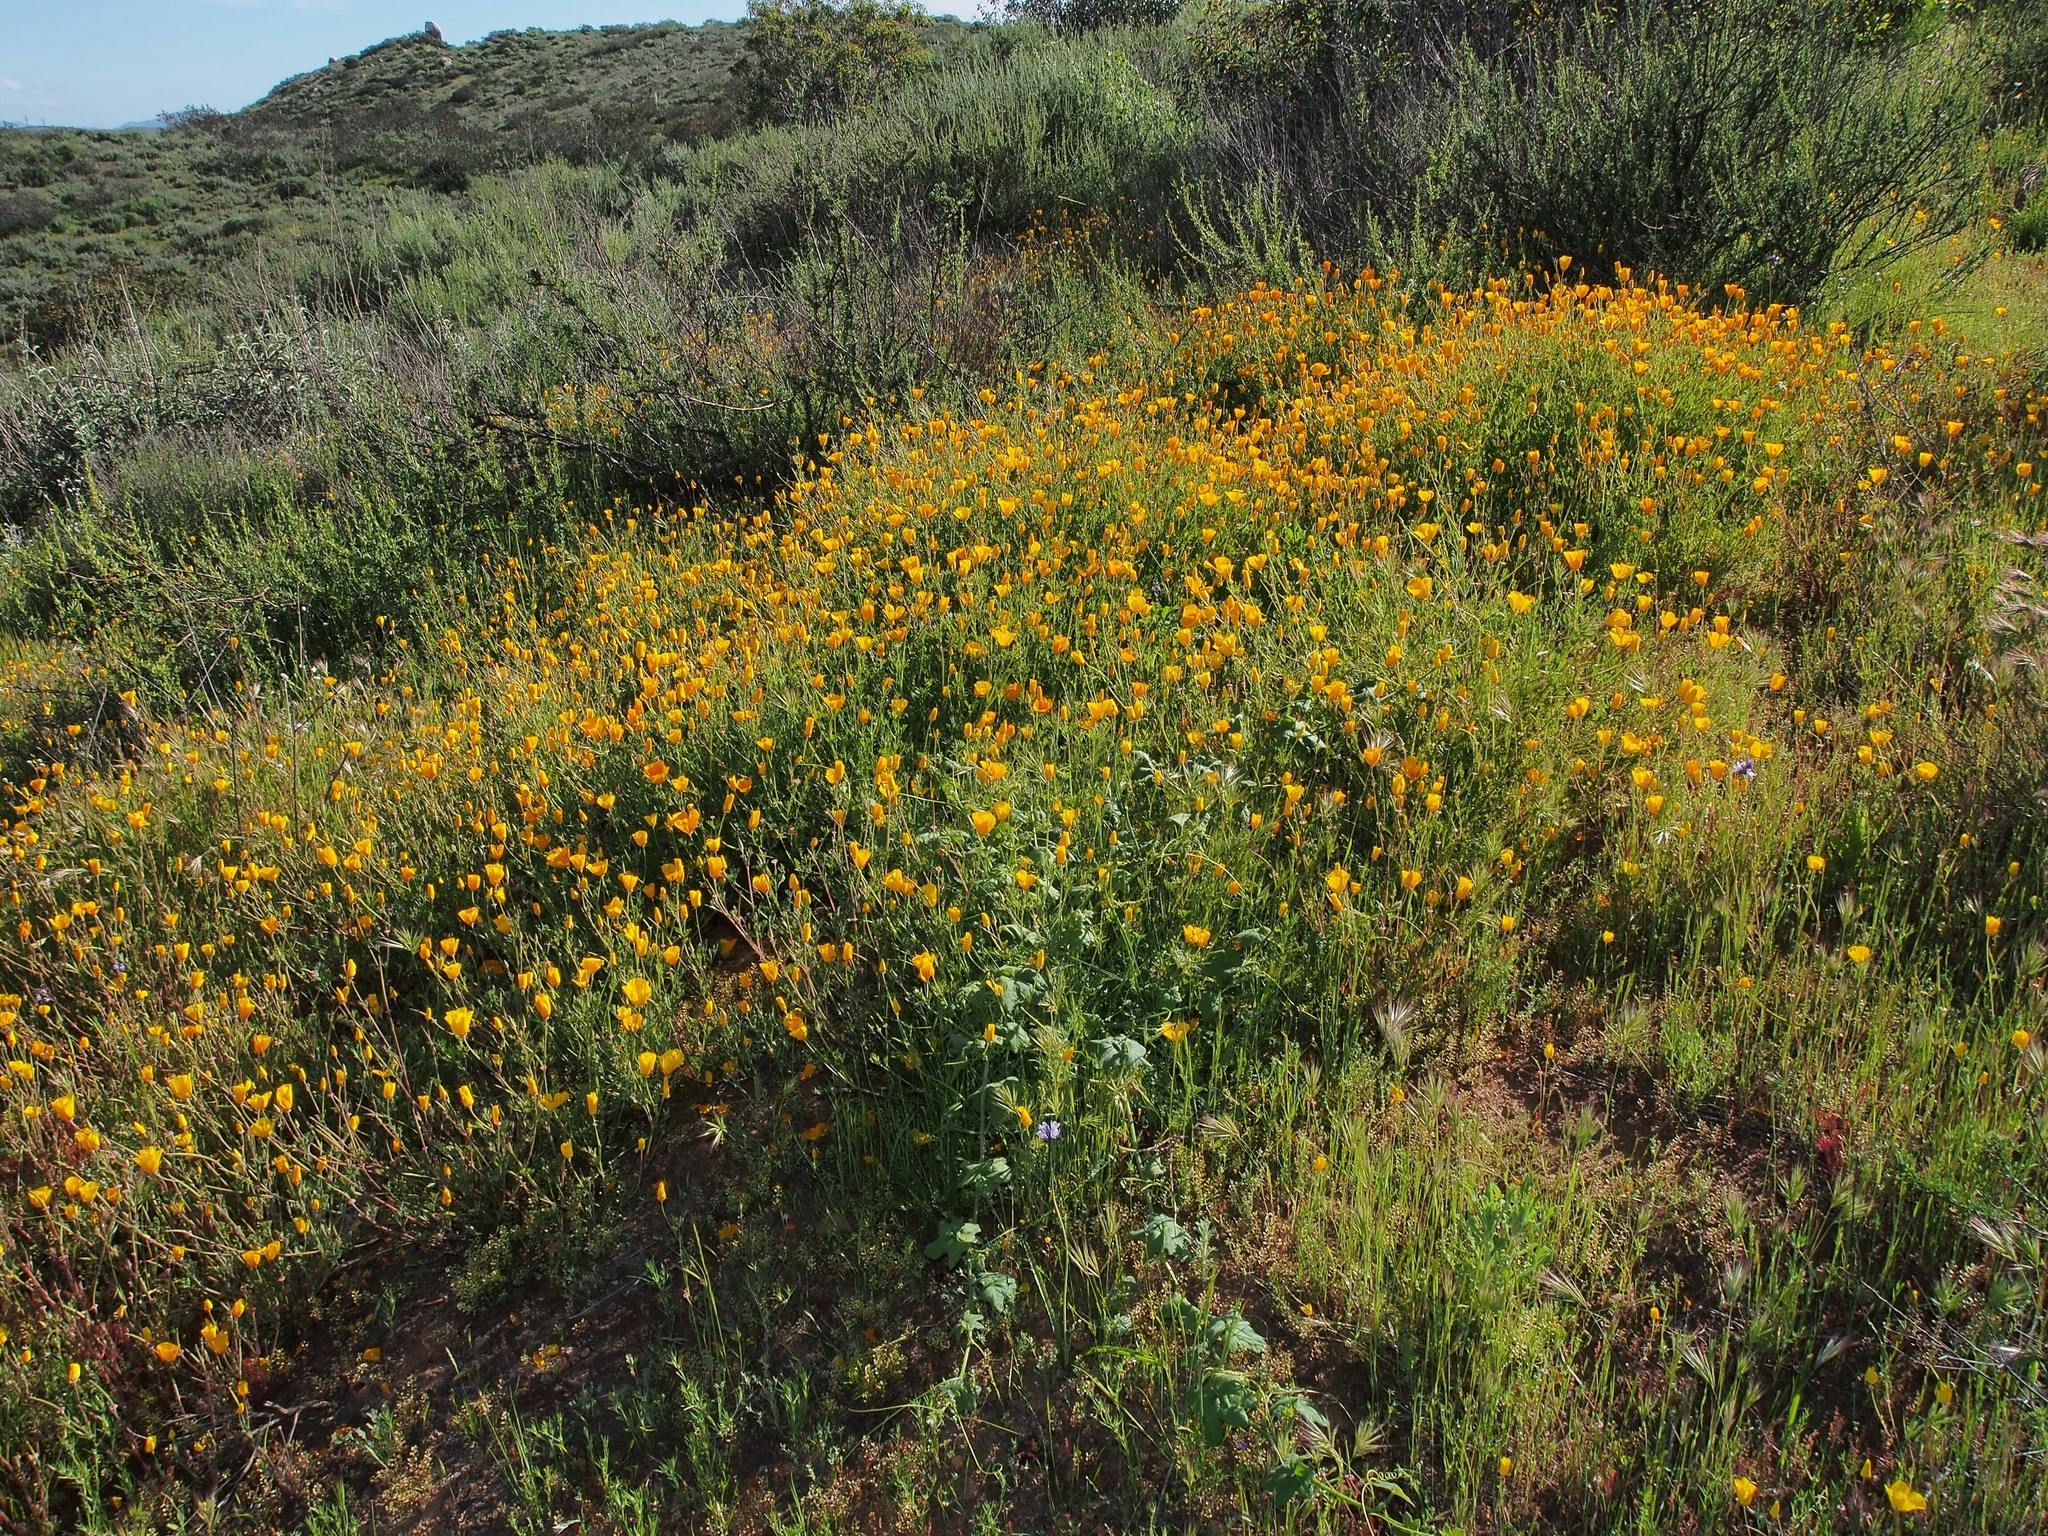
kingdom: Plantae
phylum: Tracheophyta
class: Magnoliopsida
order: Ranunculales
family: Papaveraceae
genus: Eschscholzia
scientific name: Eschscholzia californica
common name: California poppy
